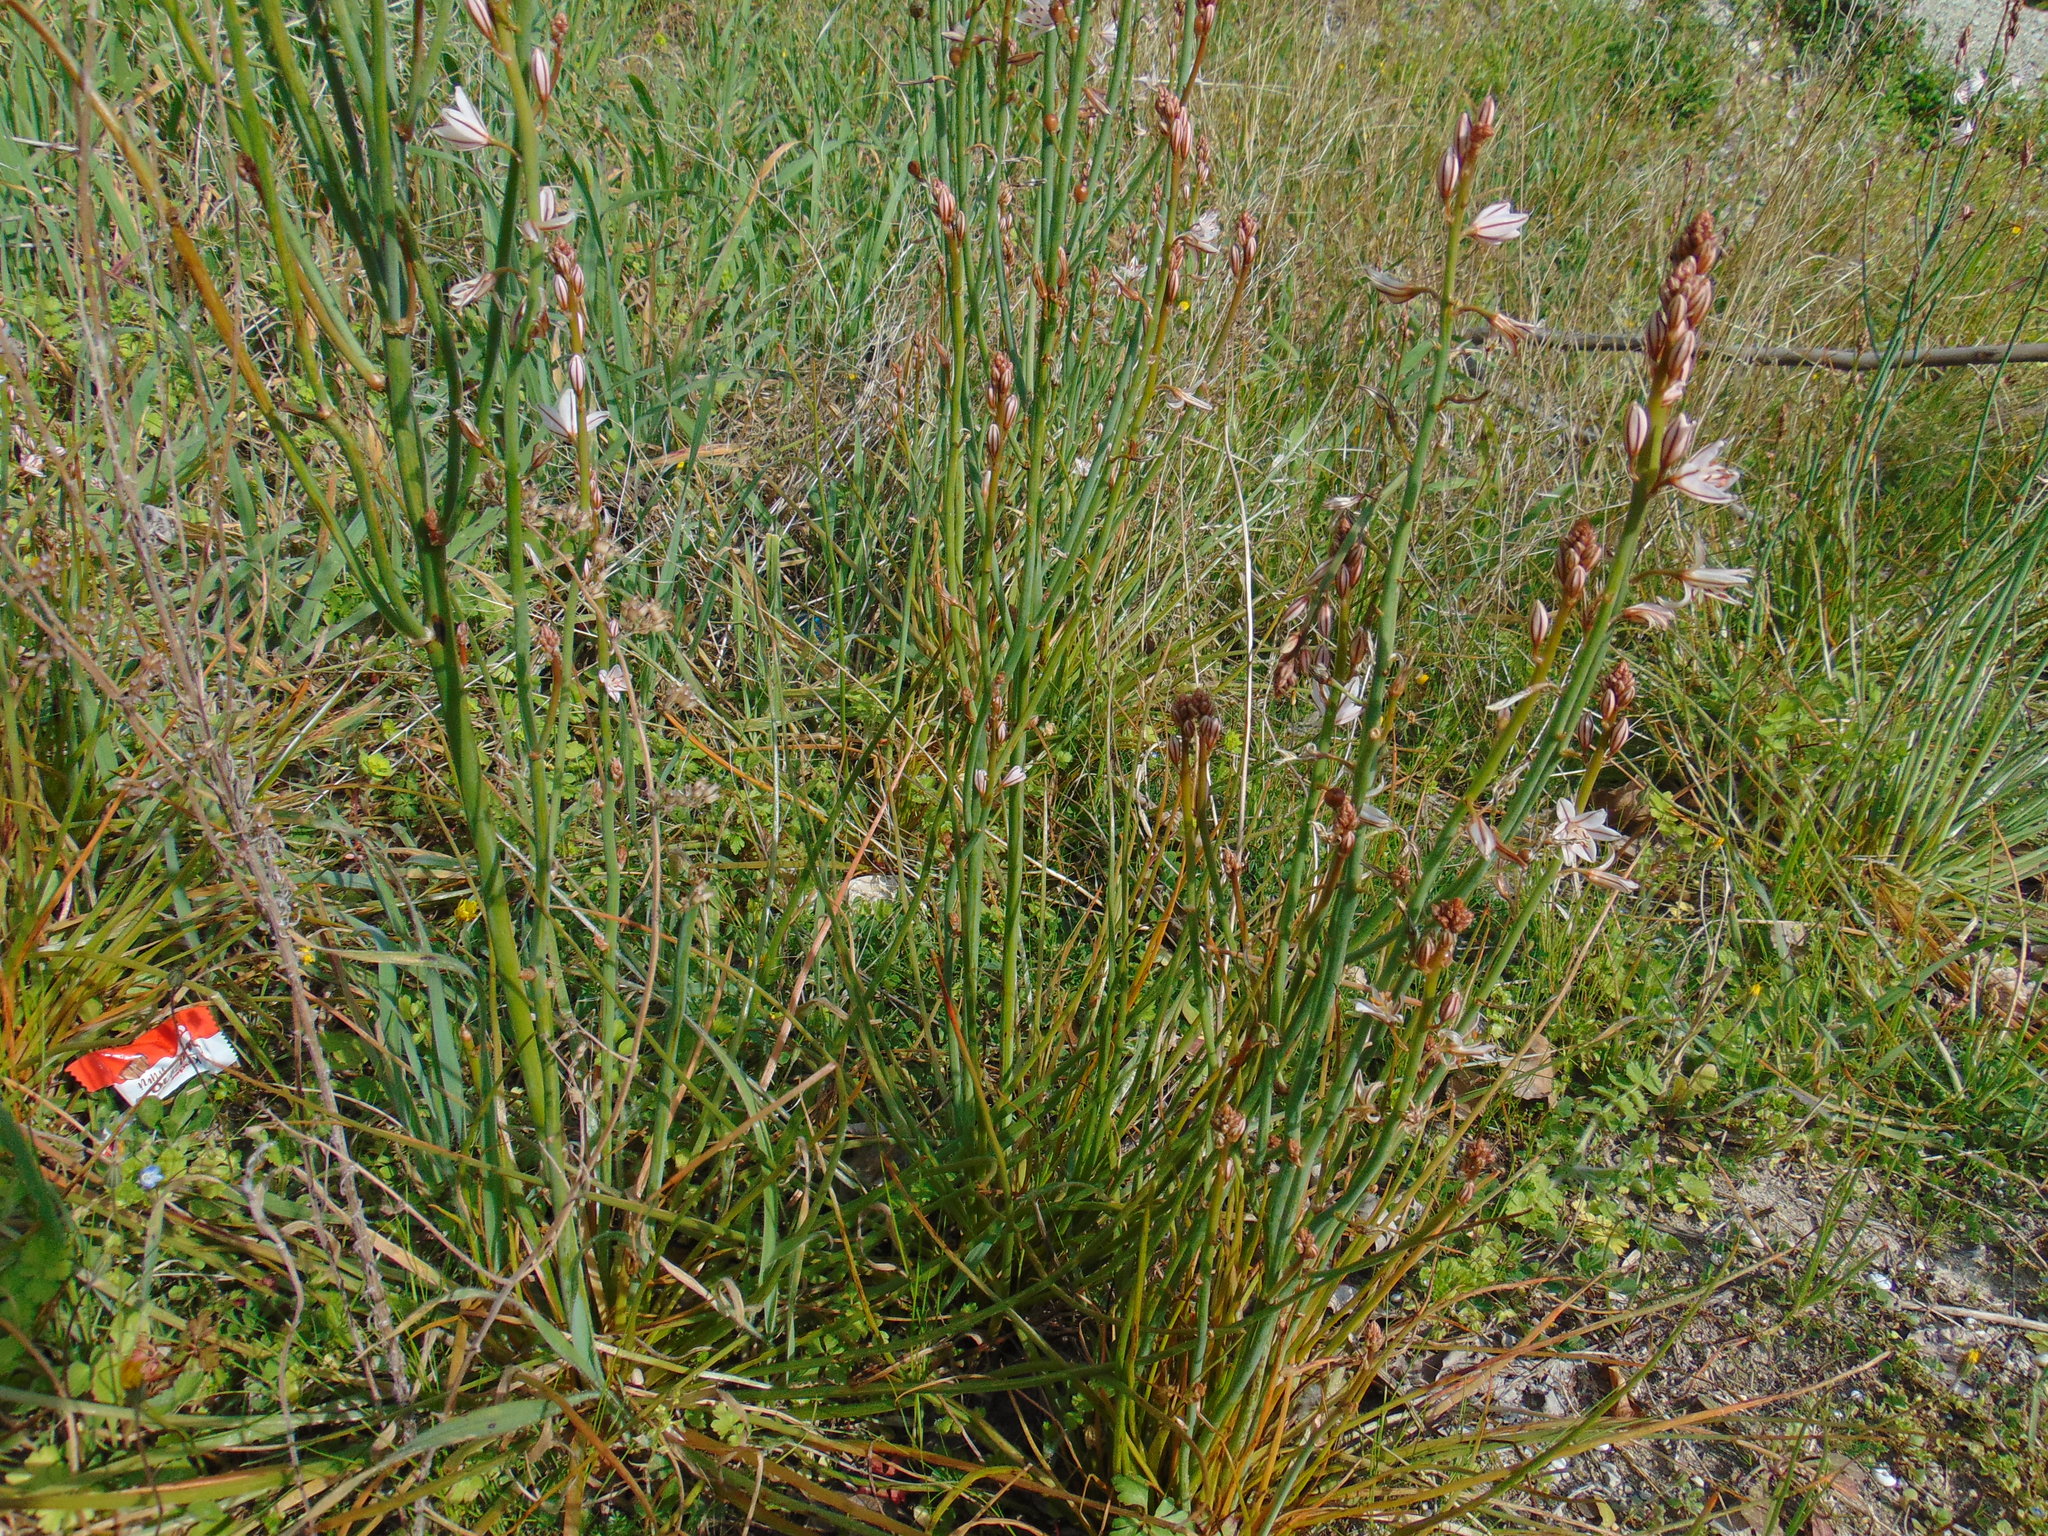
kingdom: Plantae
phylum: Tracheophyta
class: Liliopsida
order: Asparagales
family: Asphodelaceae
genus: Asphodelus
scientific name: Asphodelus fistulosus
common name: Onionweed
